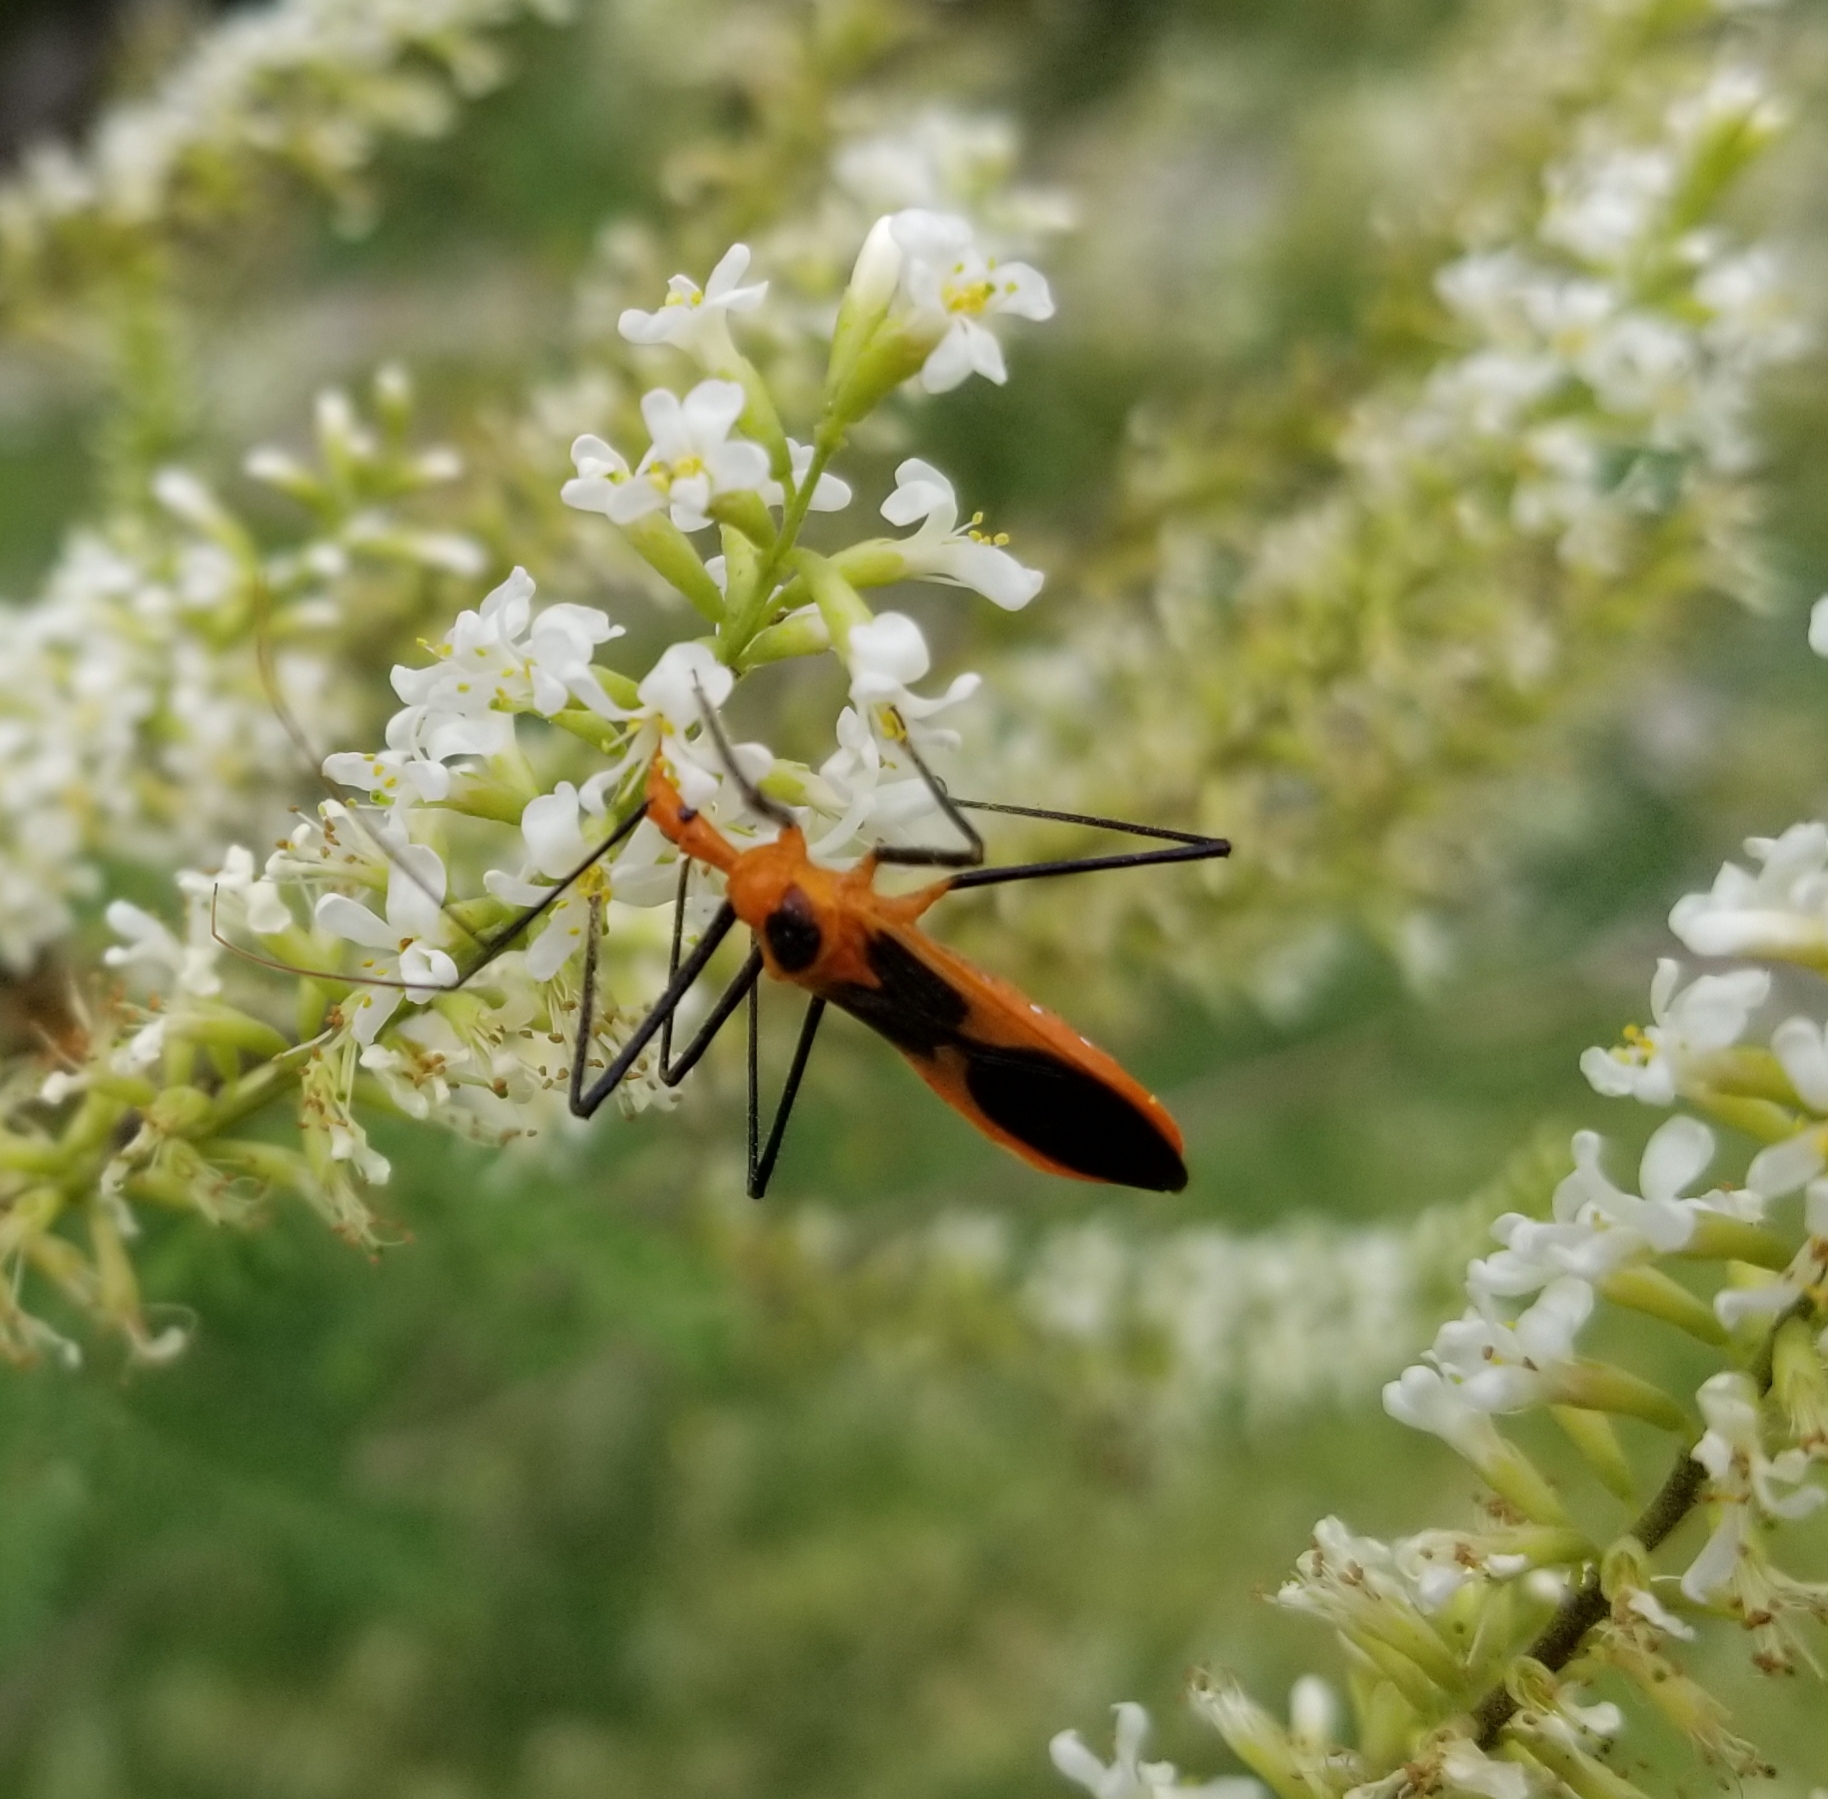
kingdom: Animalia
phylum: Arthropoda
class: Insecta
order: Hemiptera
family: Reduviidae
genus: Zelus
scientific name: Zelus longipes
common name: Milkweed assassin bug
